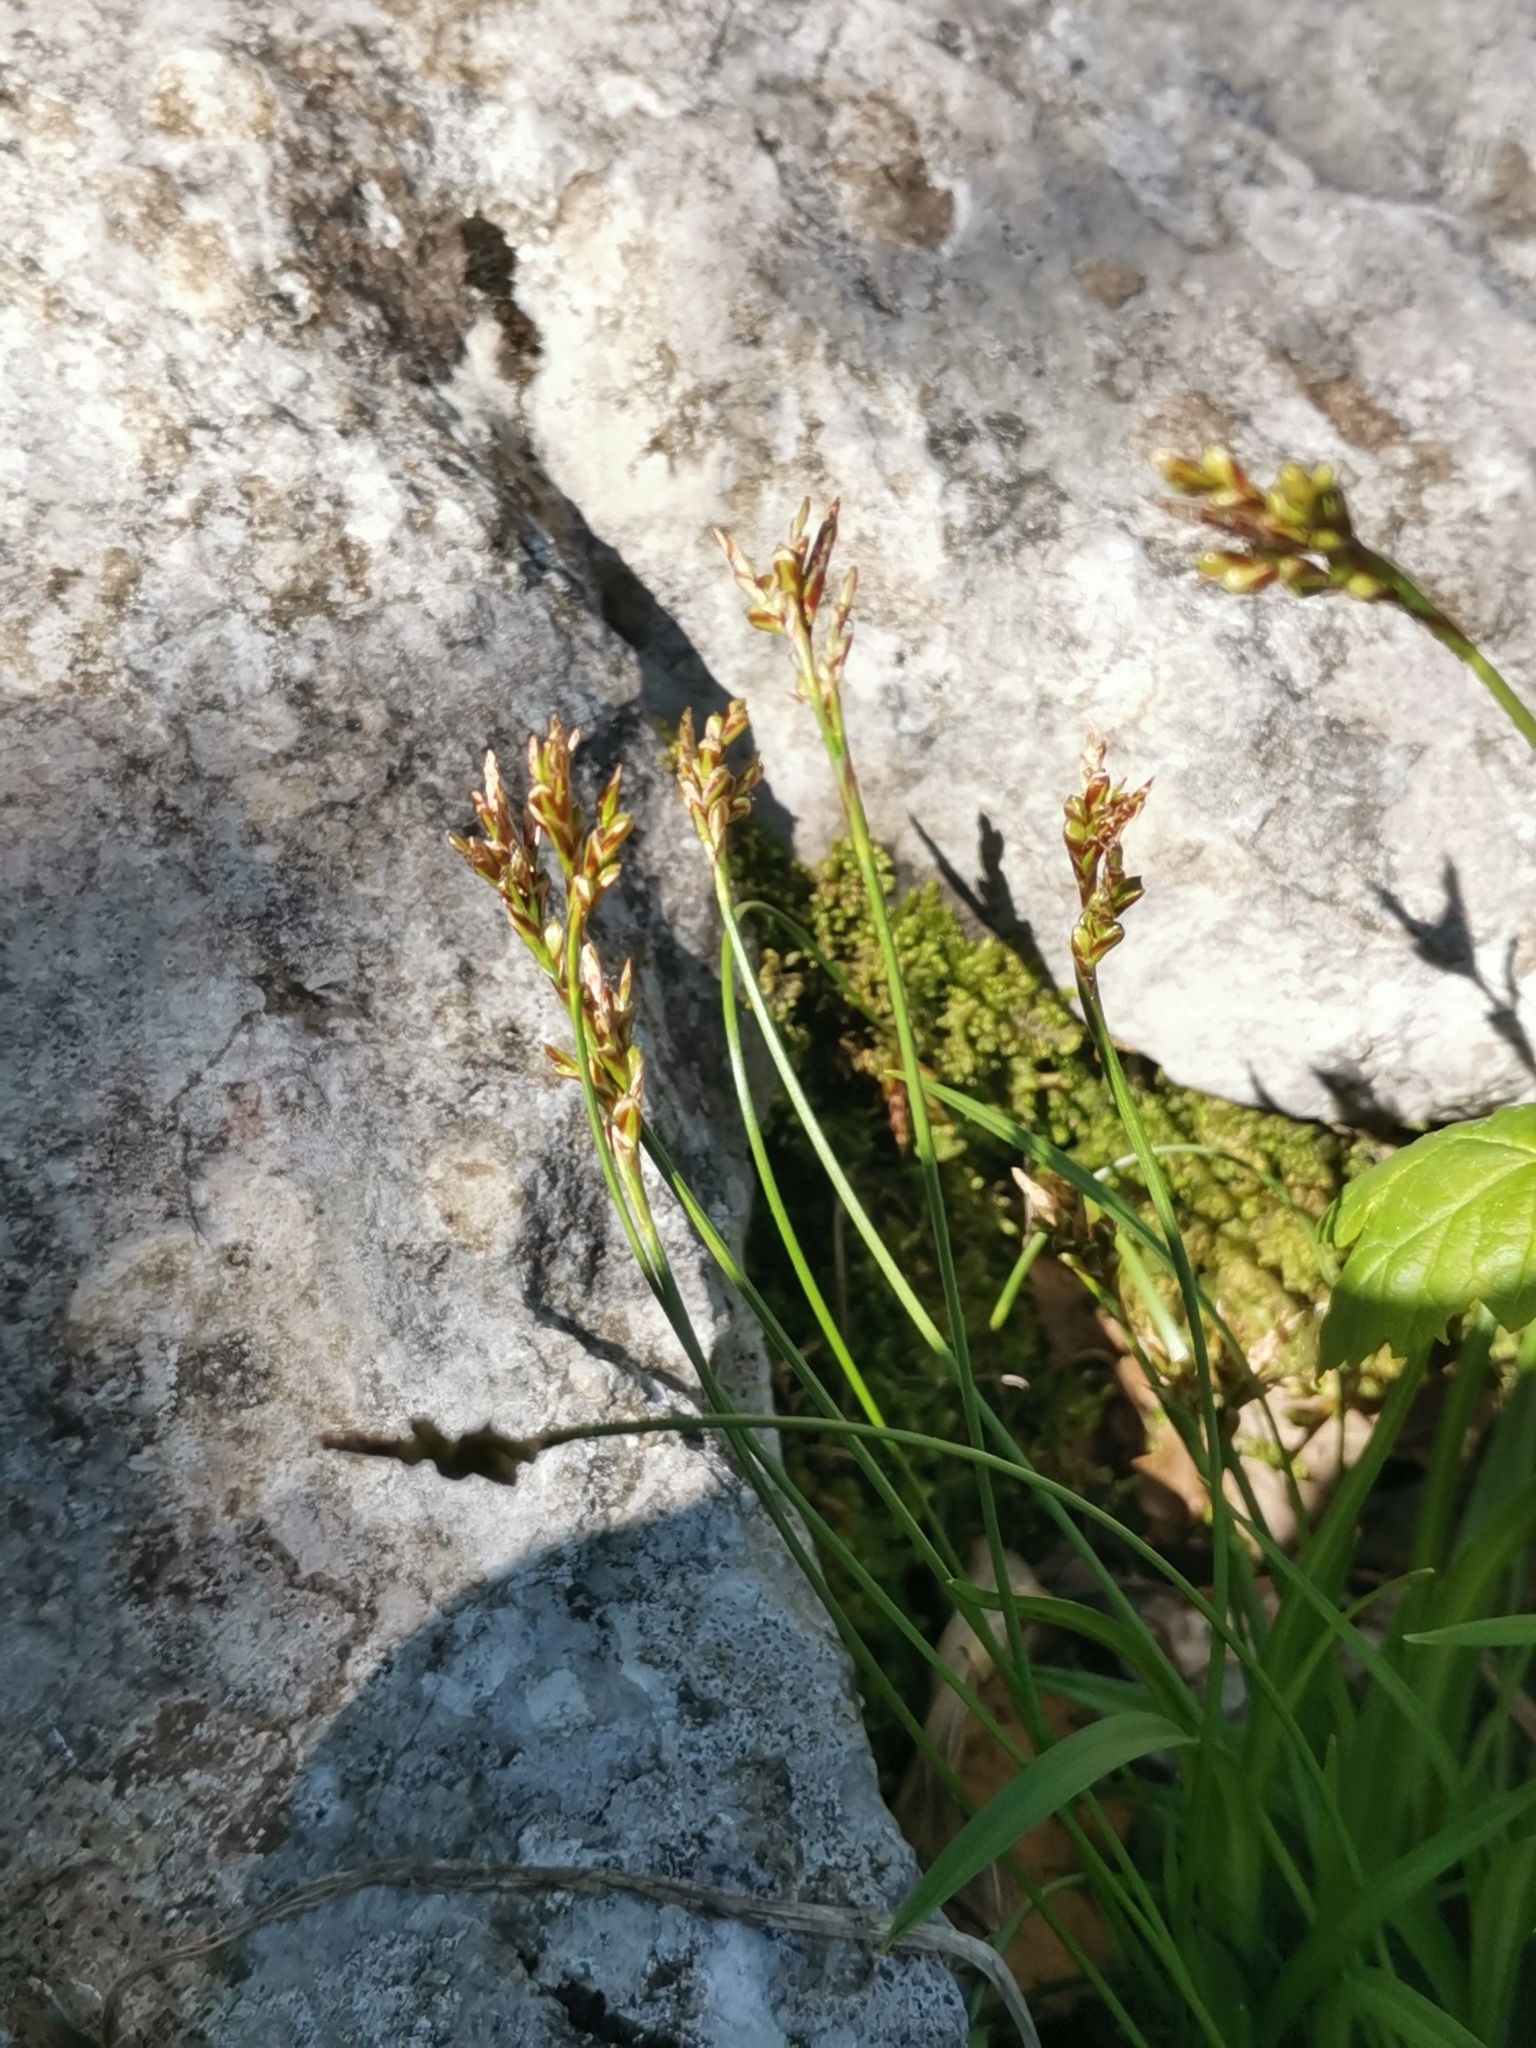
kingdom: Plantae
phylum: Tracheophyta
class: Liliopsida
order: Poales
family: Cyperaceae
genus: Carex
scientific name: Carex ornithopoda
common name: Bird's-foot sedge
